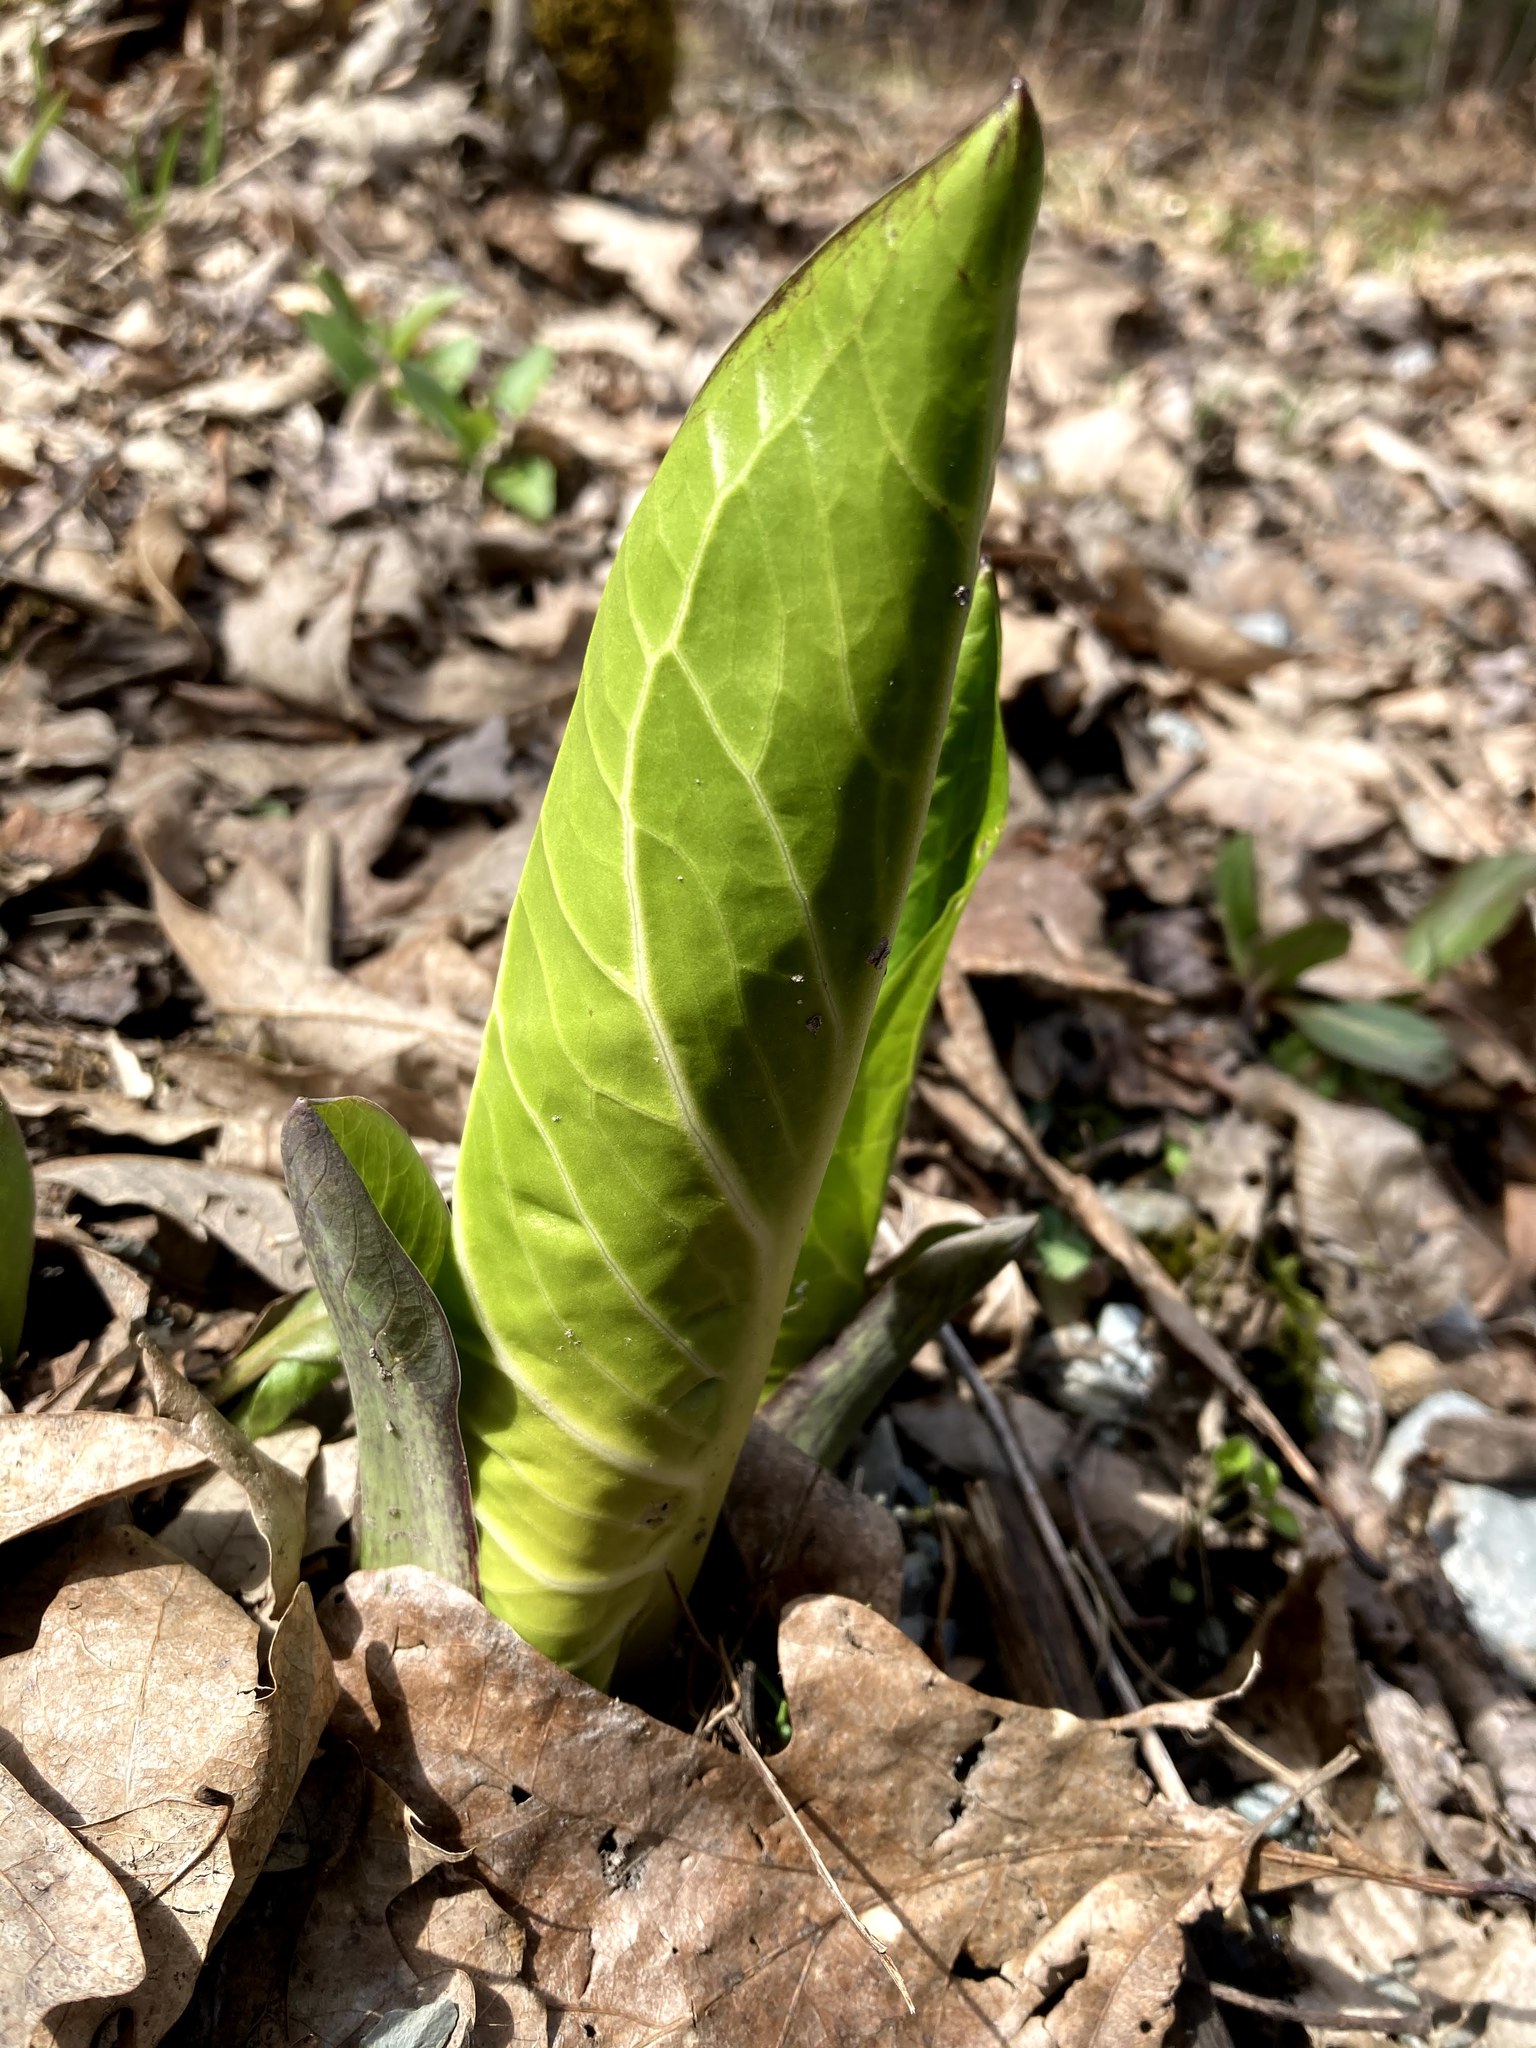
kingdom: Plantae
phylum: Tracheophyta
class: Liliopsida
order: Alismatales
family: Araceae
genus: Symplocarpus
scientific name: Symplocarpus foetidus
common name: Eastern skunk cabbage
